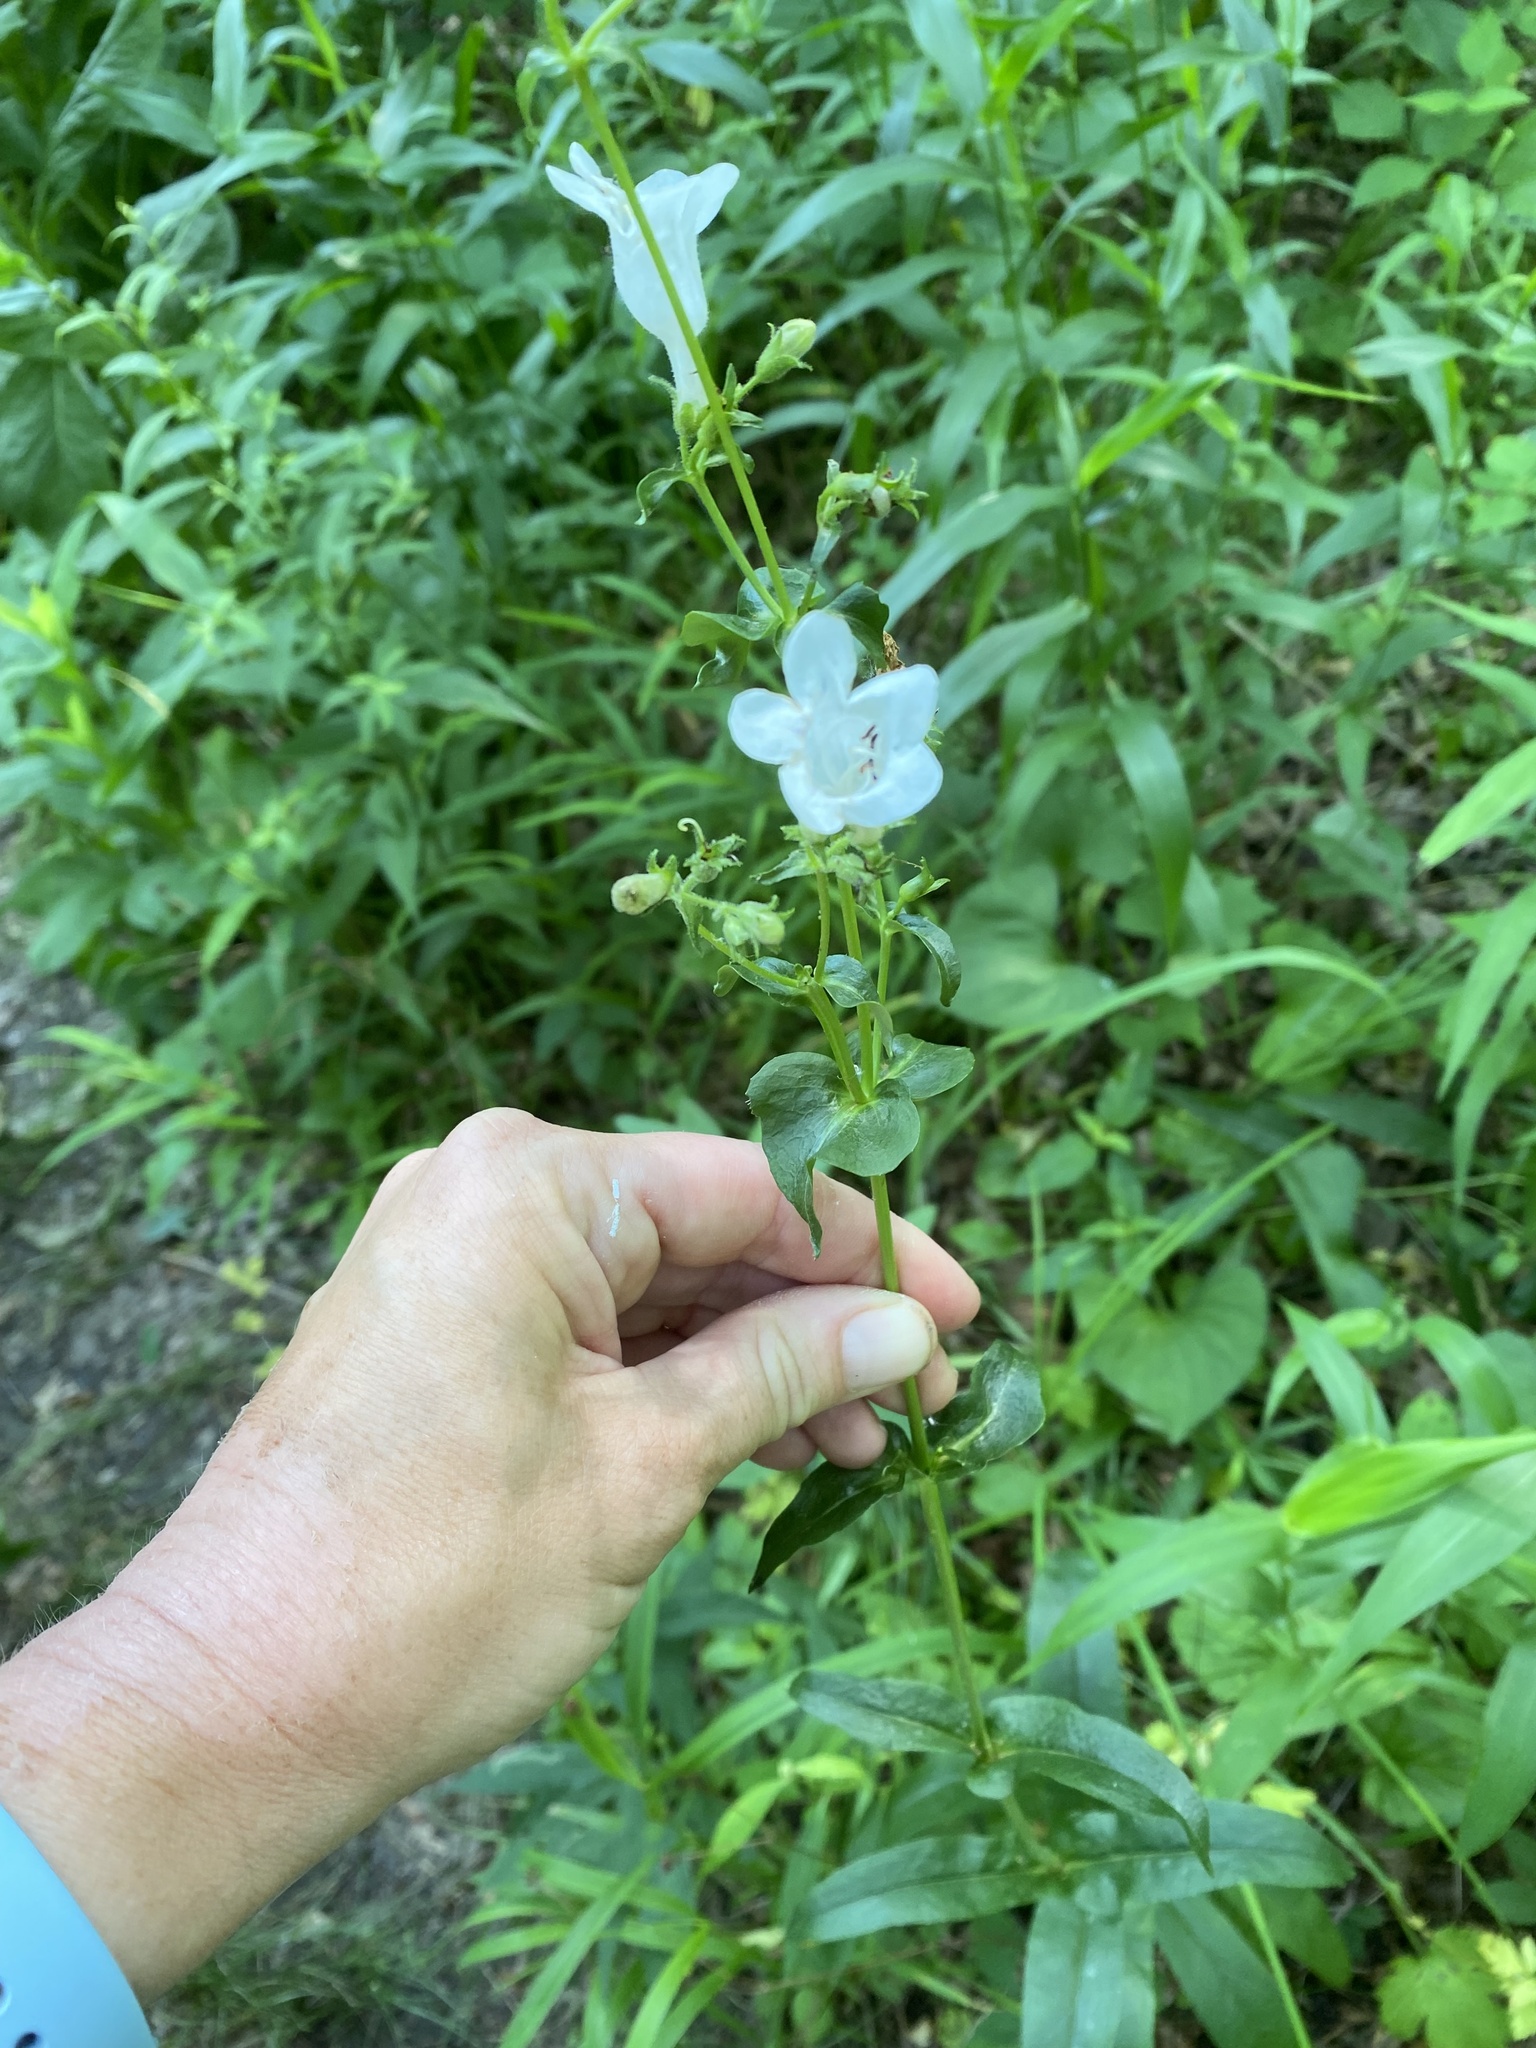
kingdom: Plantae
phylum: Tracheophyta
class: Magnoliopsida
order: Lamiales
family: Plantaginaceae
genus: Penstemon
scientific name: Penstemon digitalis
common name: Foxglove beardtongue
